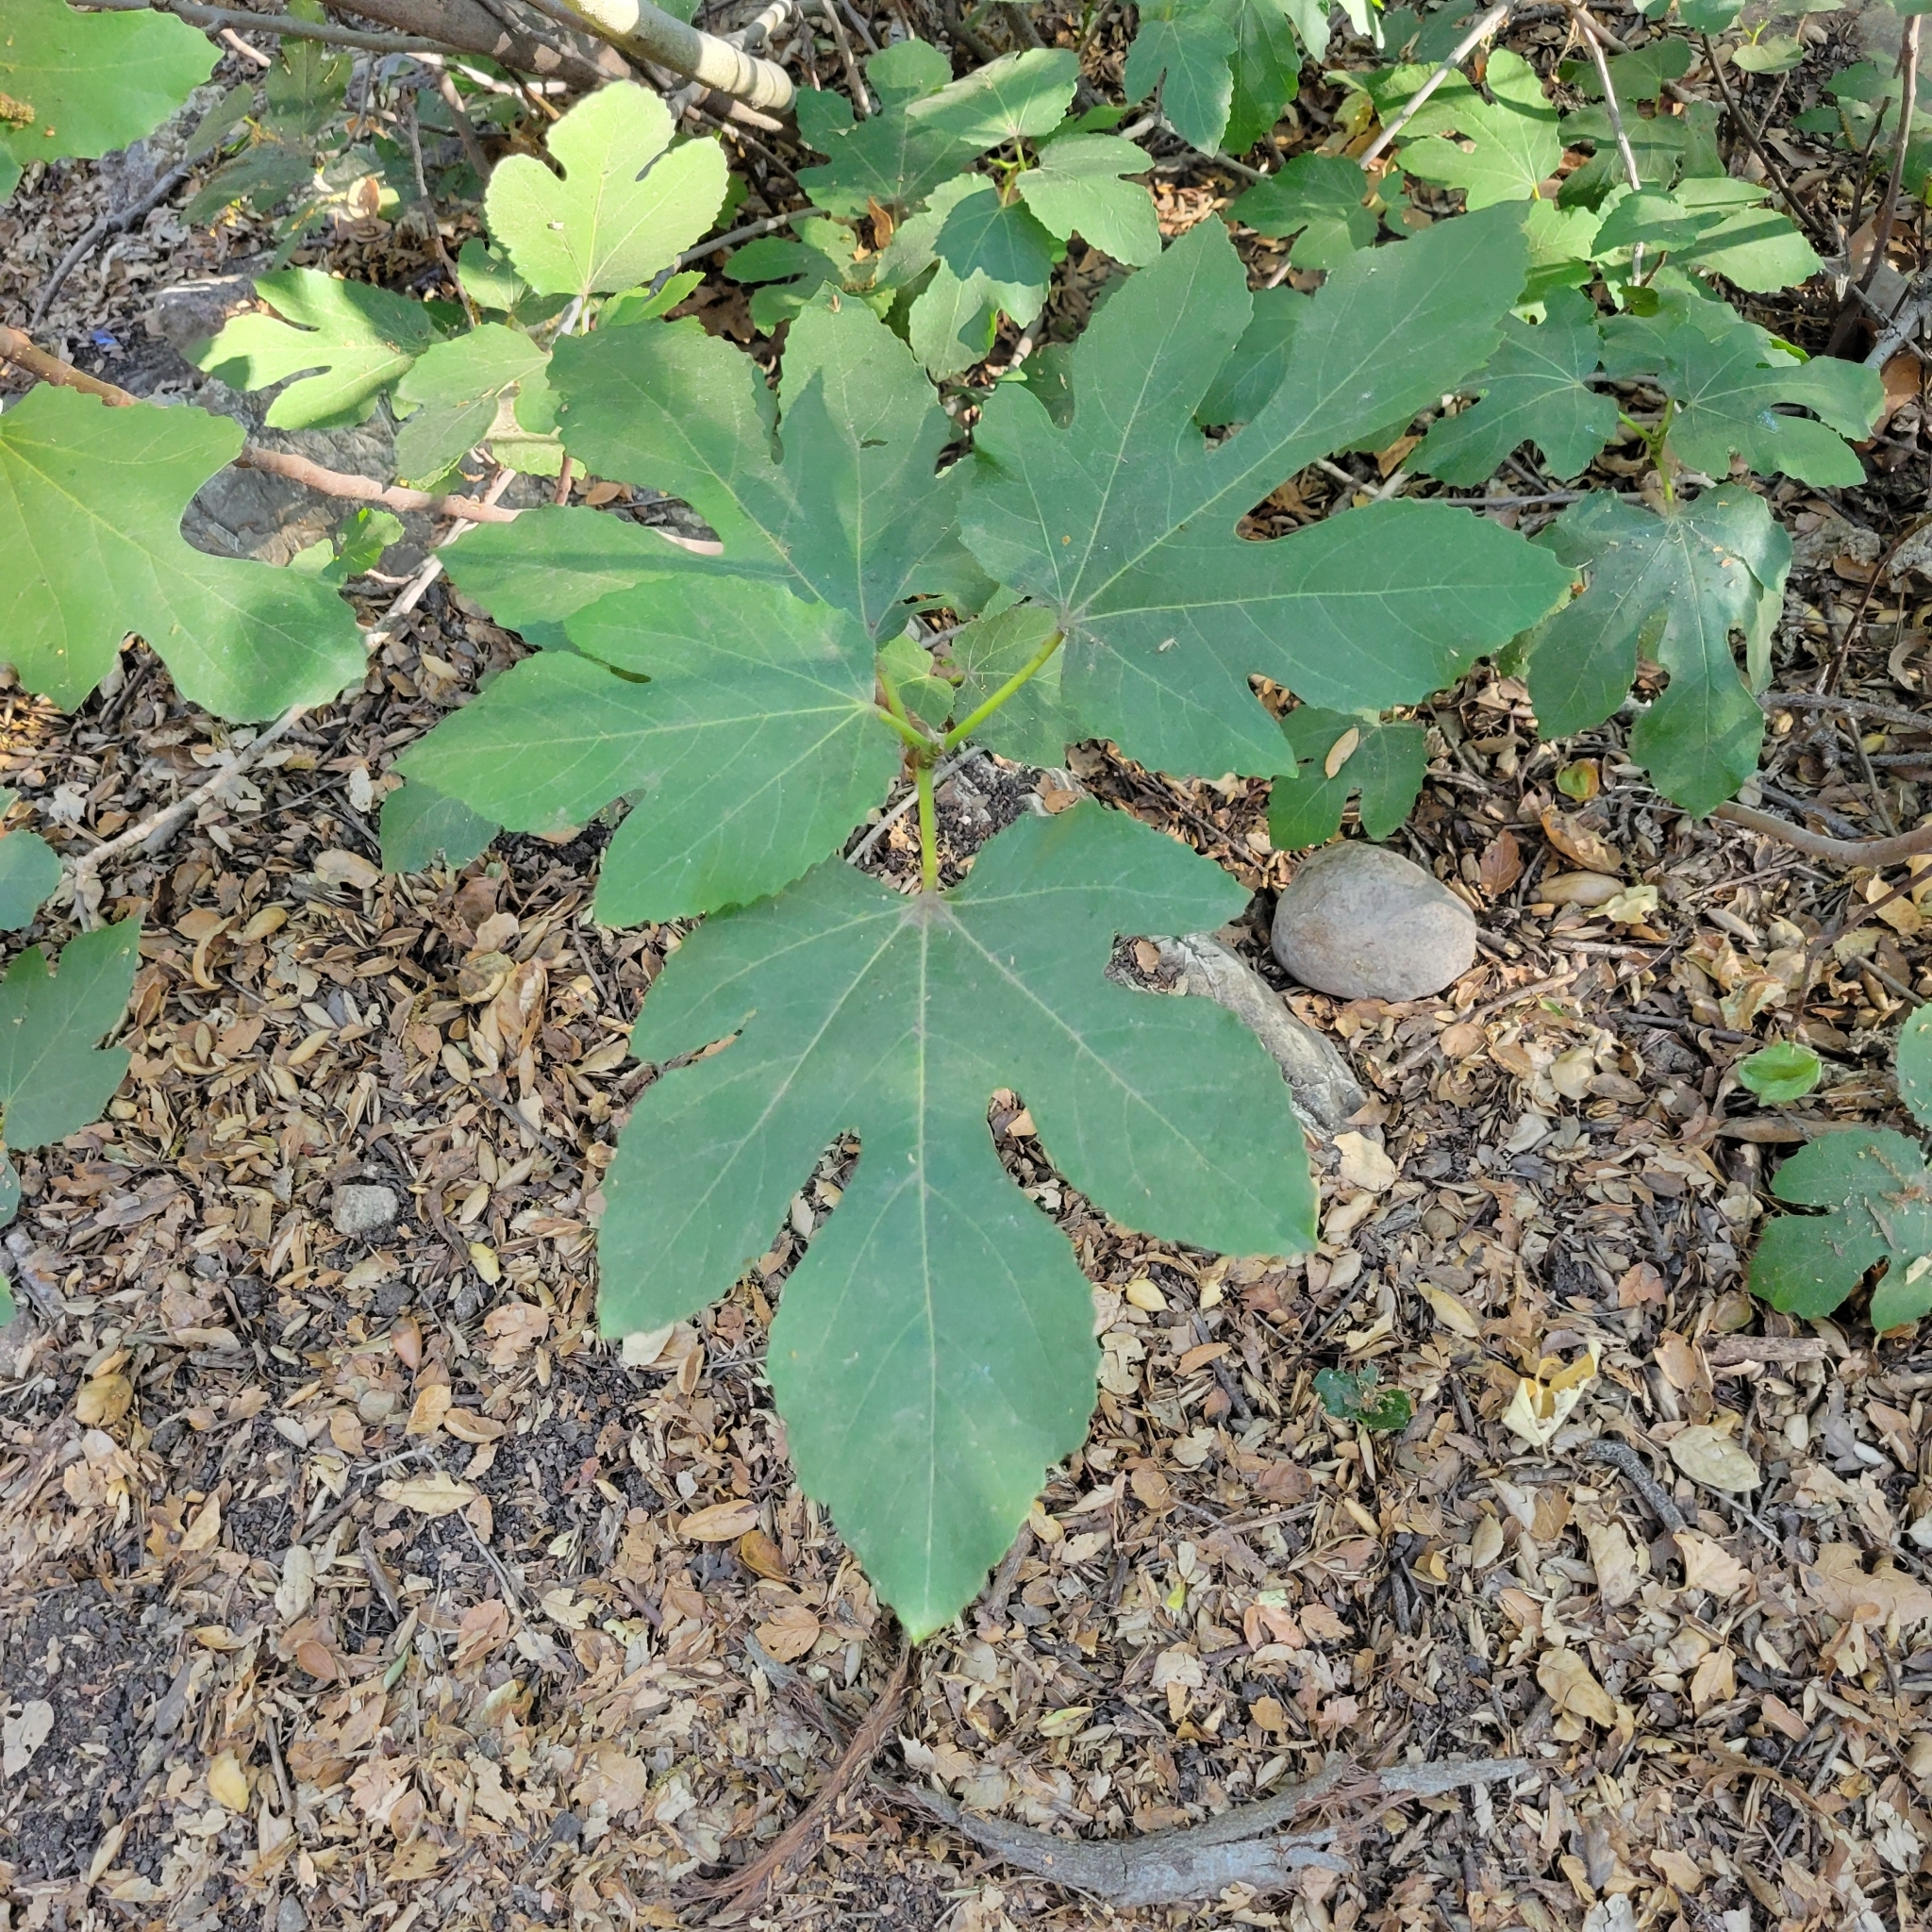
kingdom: Plantae
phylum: Tracheophyta
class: Magnoliopsida
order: Rosales
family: Moraceae
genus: Ficus
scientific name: Ficus carica
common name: Fig
